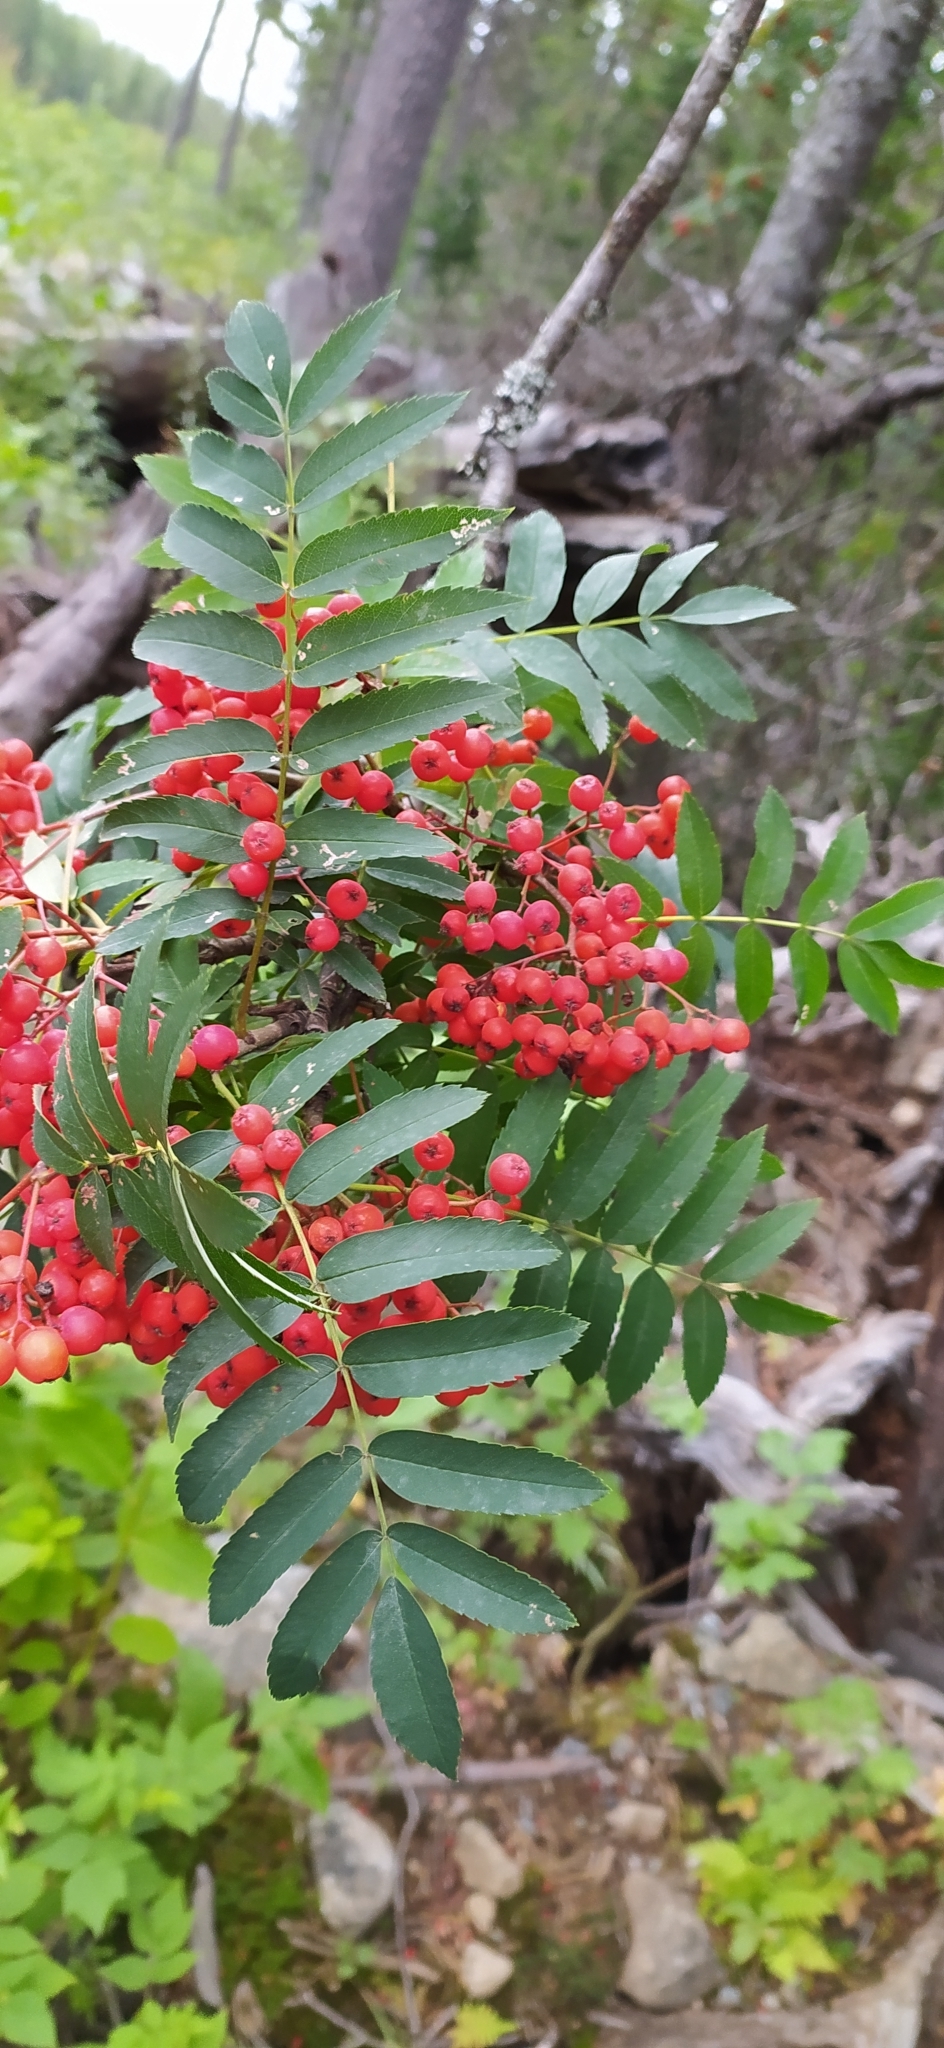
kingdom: Plantae
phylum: Tracheophyta
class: Magnoliopsida
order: Rosales
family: Rosaceae
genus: Sorbus
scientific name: Sorbus aucuparia
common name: Rowan
